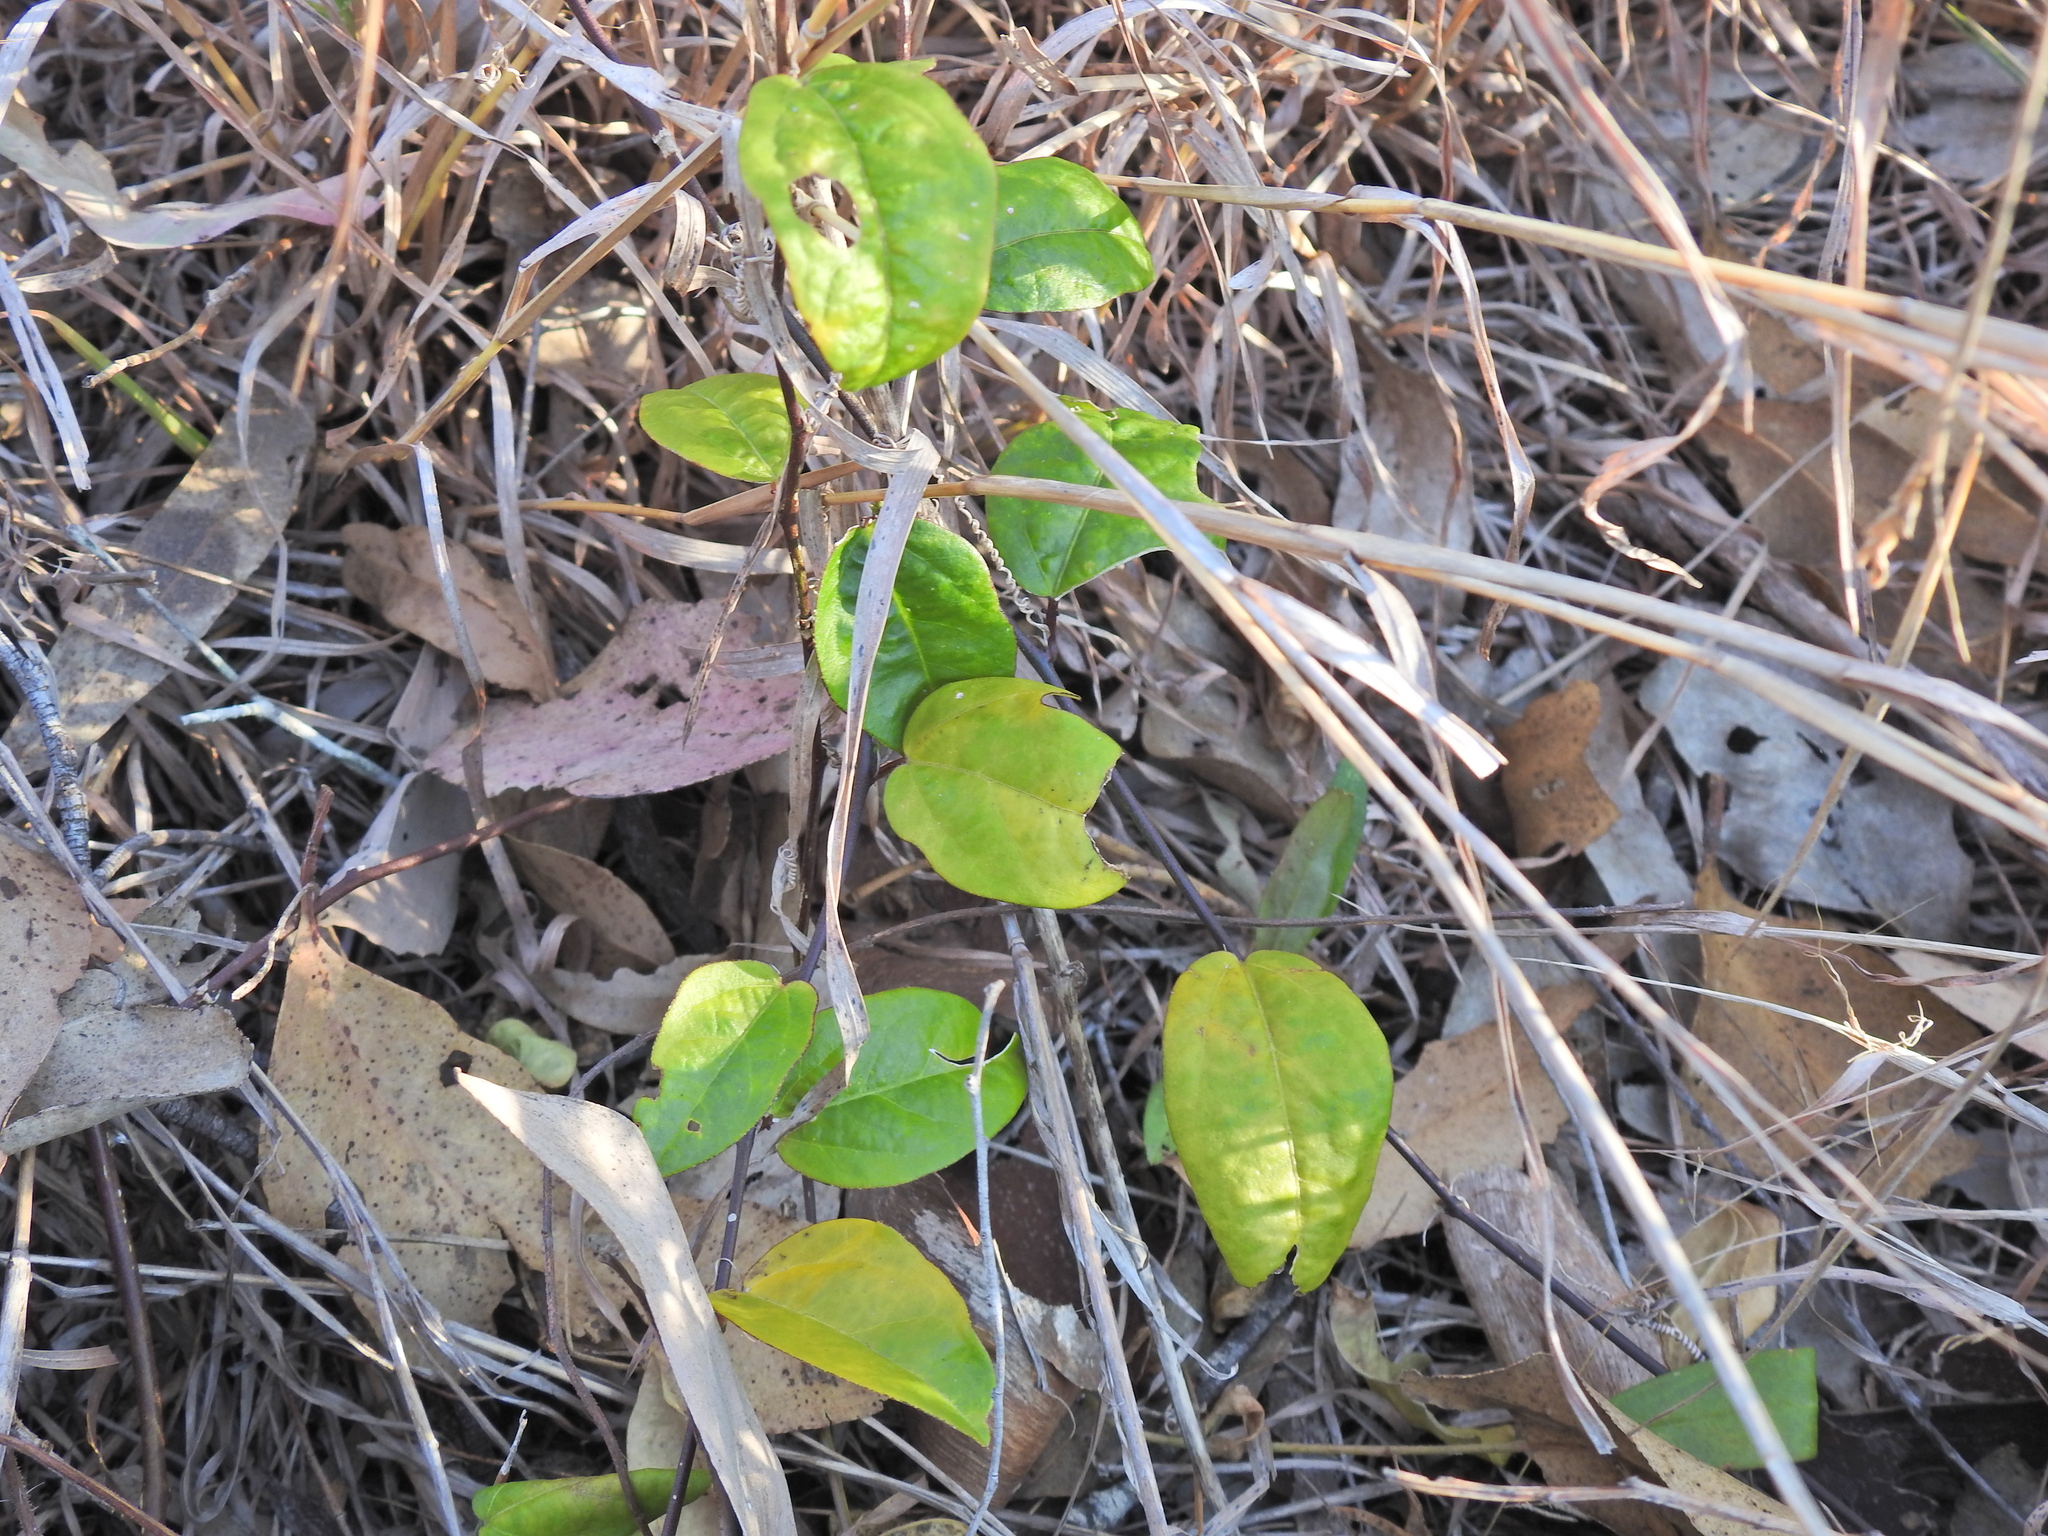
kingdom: Plantae
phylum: Tracheophyta
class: Magnoliopsida
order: Malpighiales
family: Passifloraceae
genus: Passiflora
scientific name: Passiflora pallida
